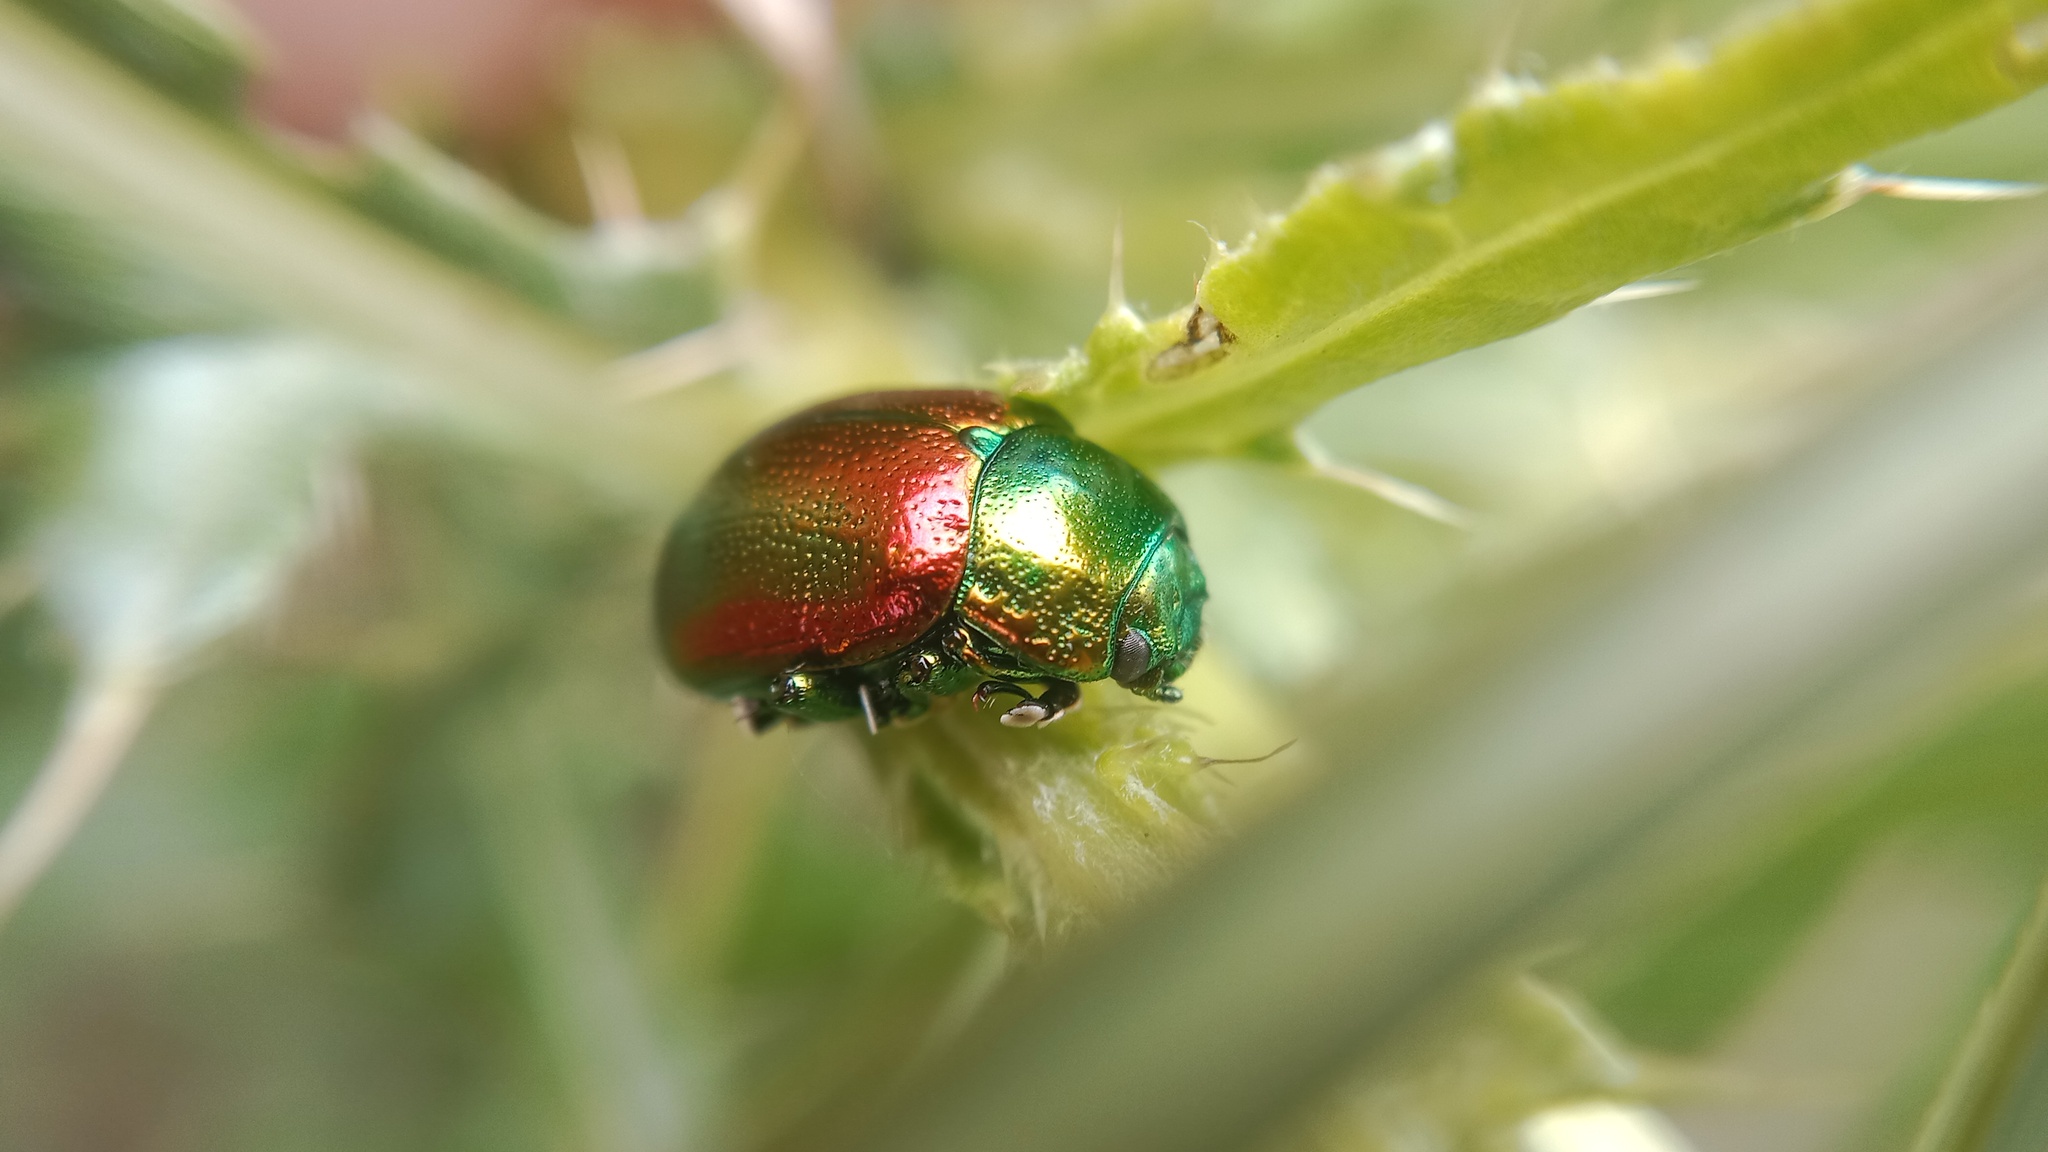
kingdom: Animalia
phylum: Arthropoda
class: Insecta
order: Coleoptera
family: Chrysomelidae
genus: Chrysolina
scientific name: Chrysolina graminis
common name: Tansey beetle
